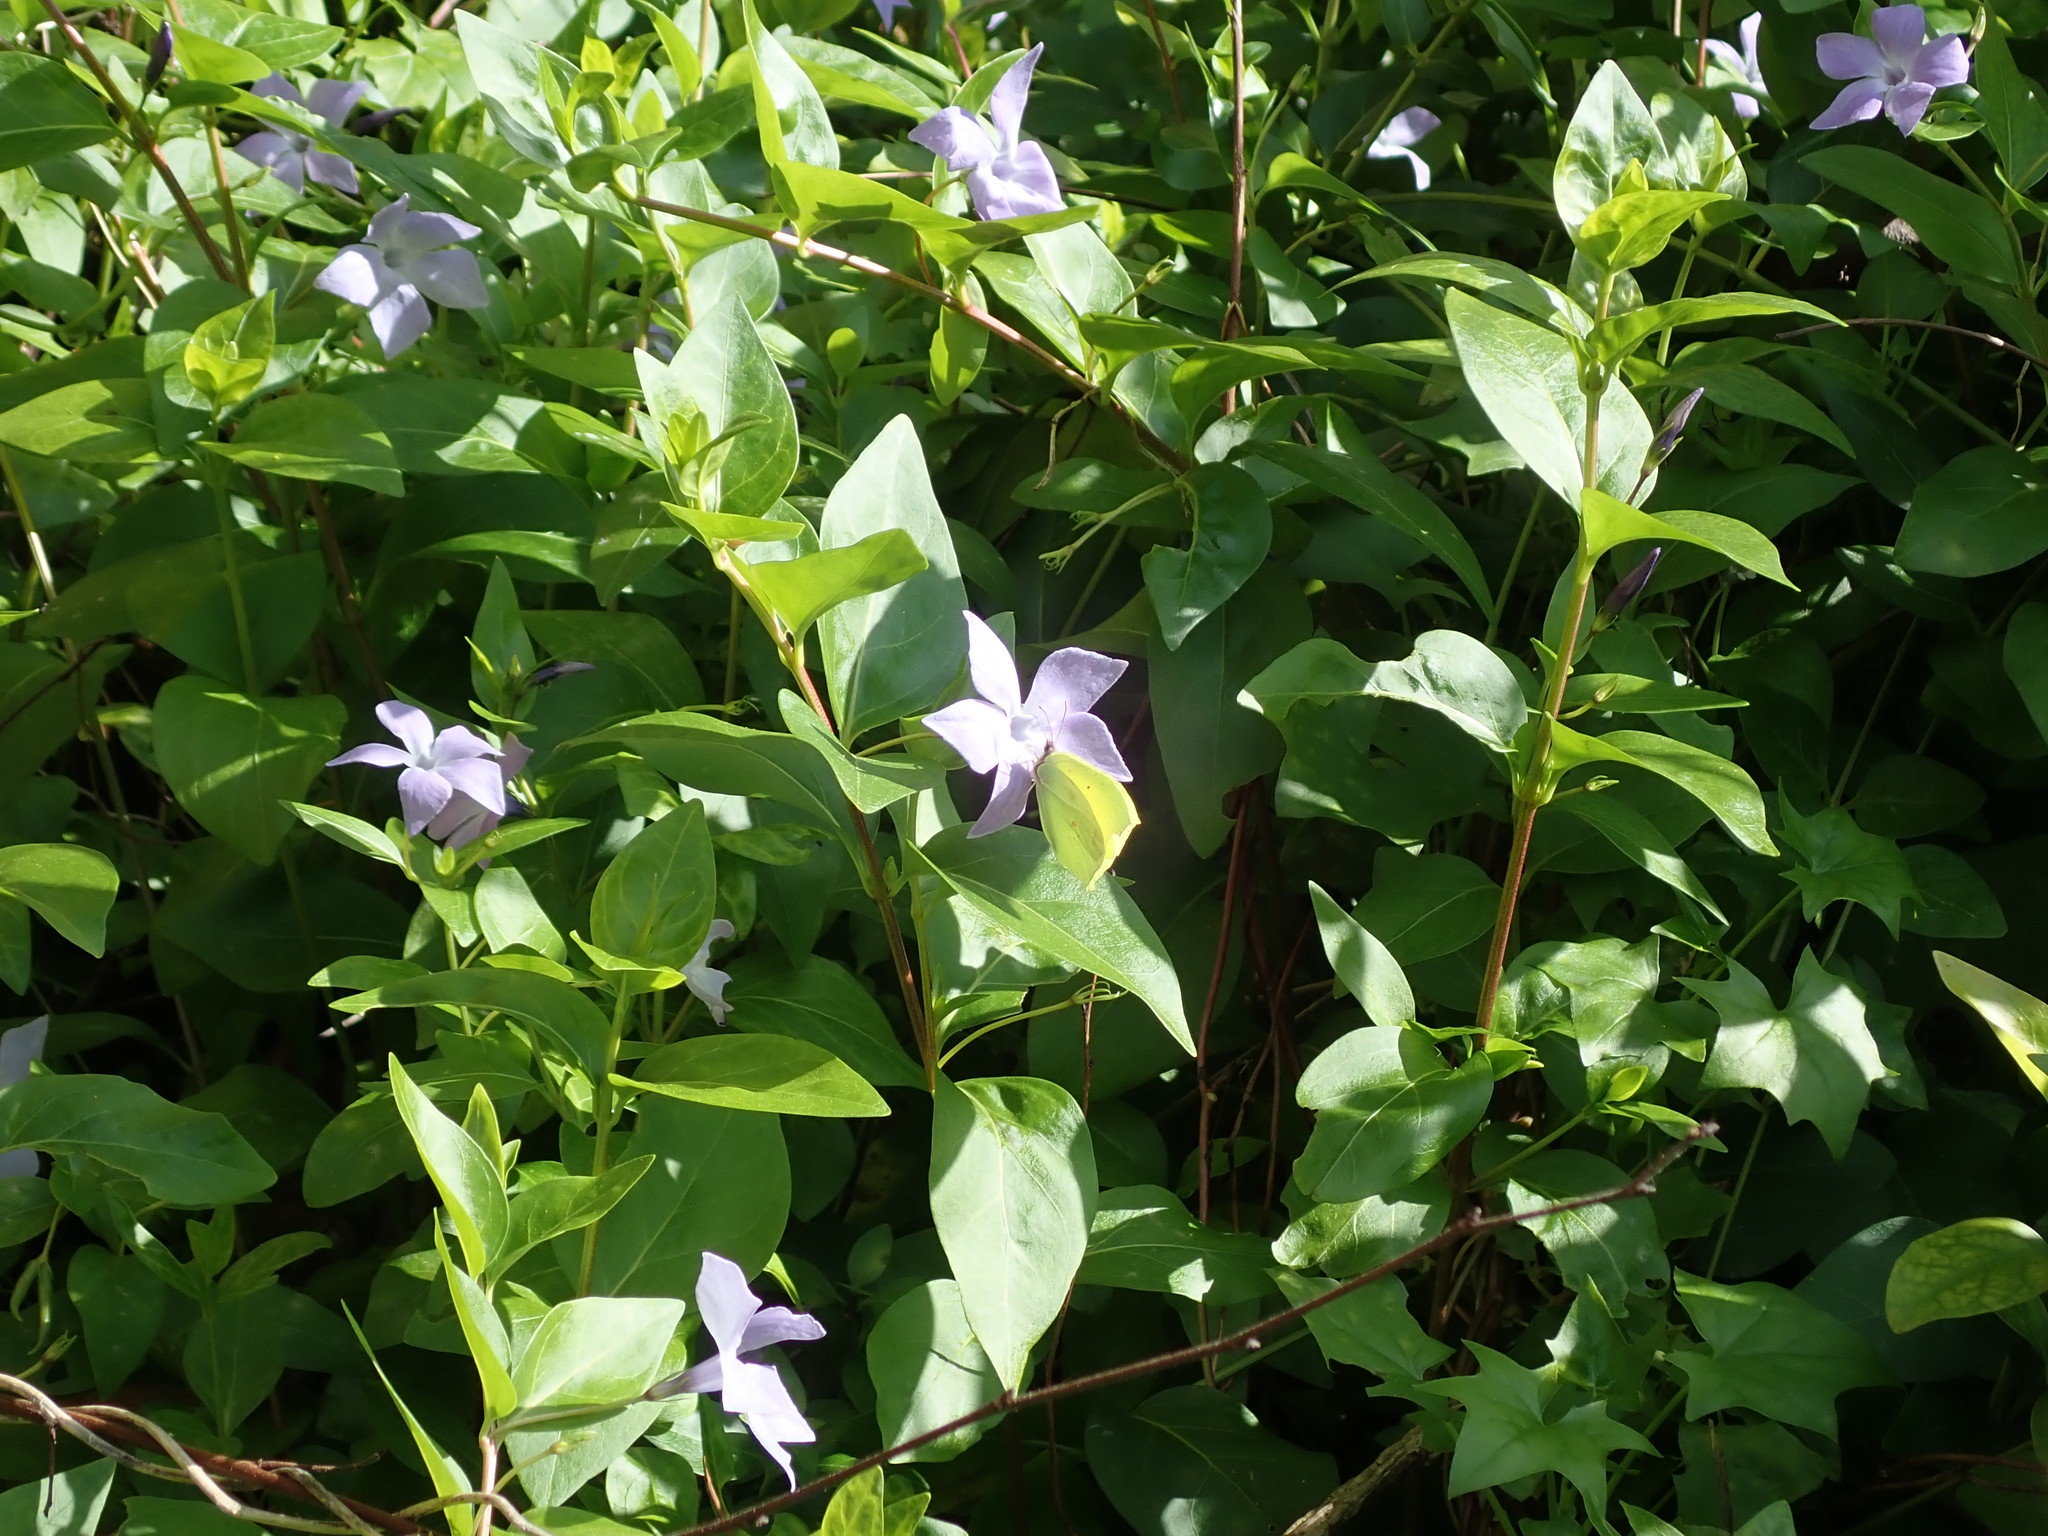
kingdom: Plantae
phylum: Tracheophyta
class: Magnoliopsida
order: Gentianales
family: Apocynaceae
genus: Vinca
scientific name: Vinca difformis
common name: Intermediate periwinkle
